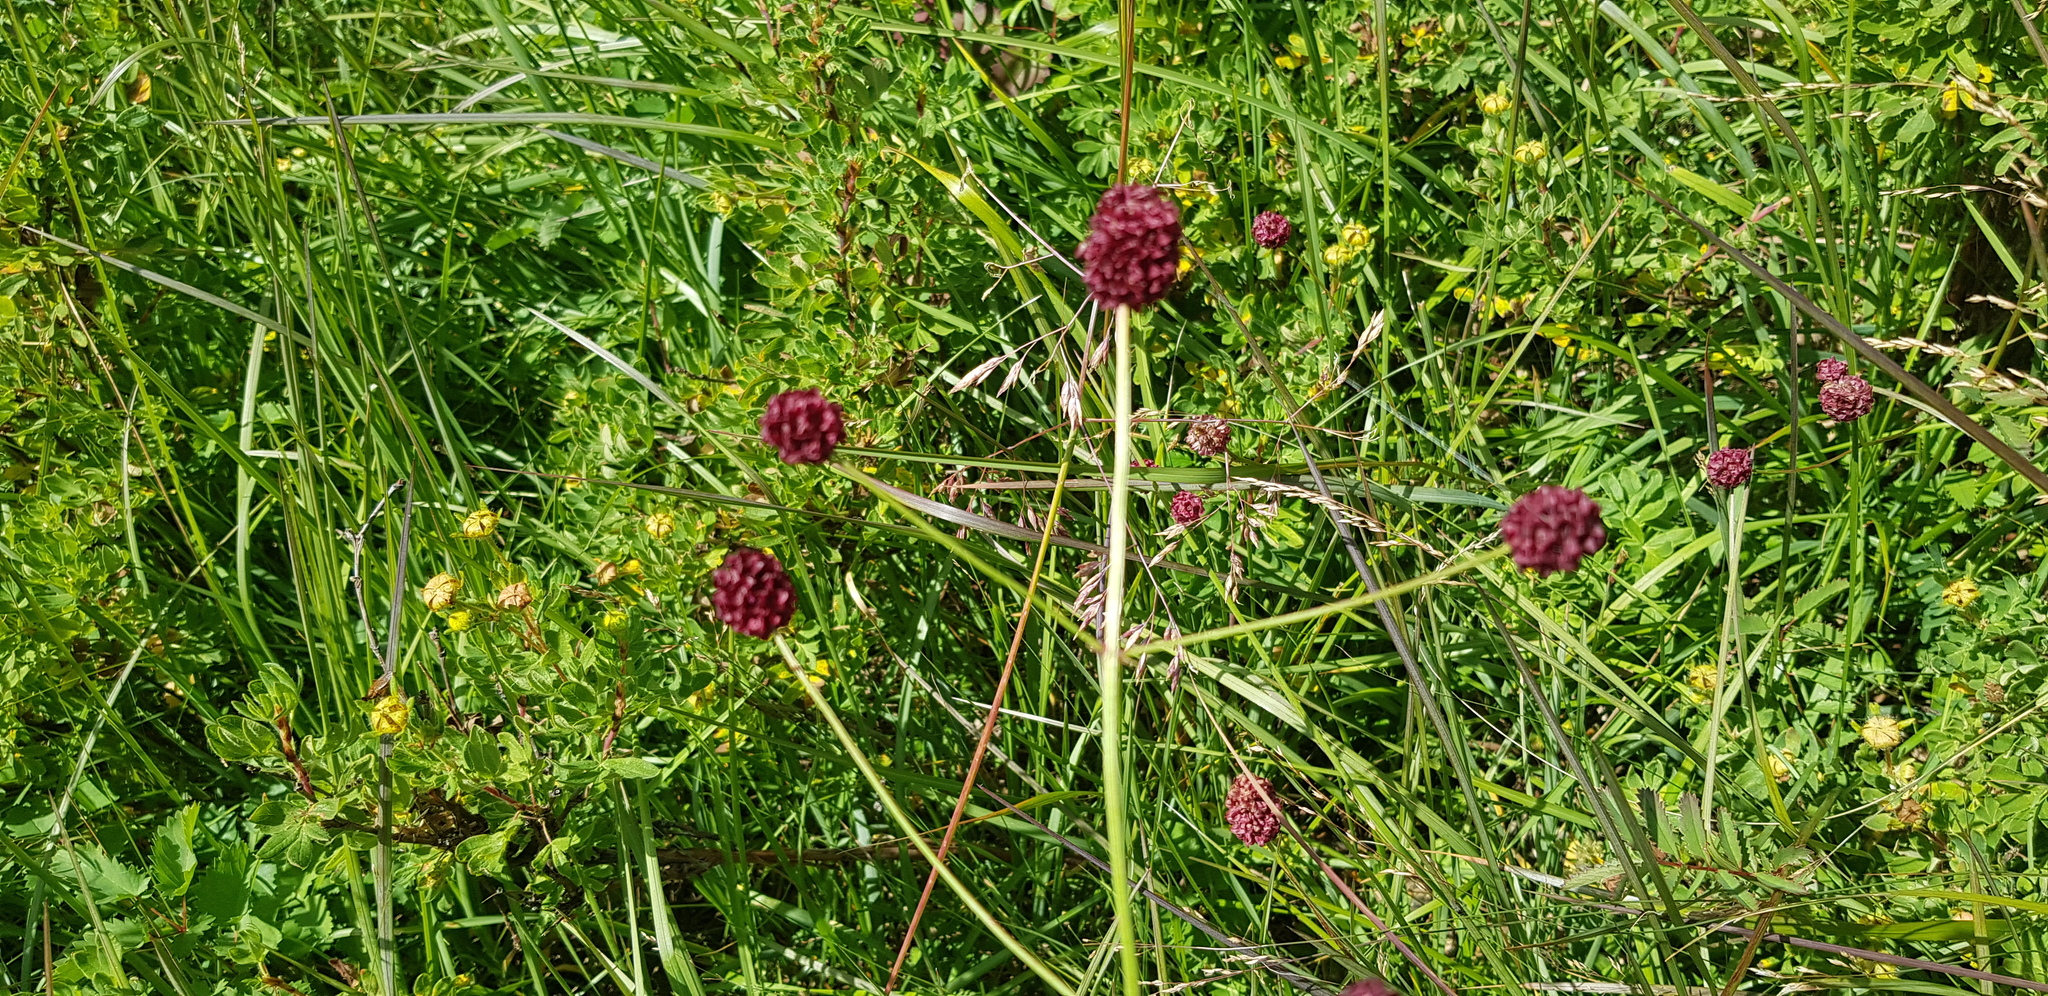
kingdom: Plantae
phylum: Tracheophyta
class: Magnoliopsida
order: Rosales
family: Rosaceae
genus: Sanguisorba
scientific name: Sanguisorba officinalis
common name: Great burnet
